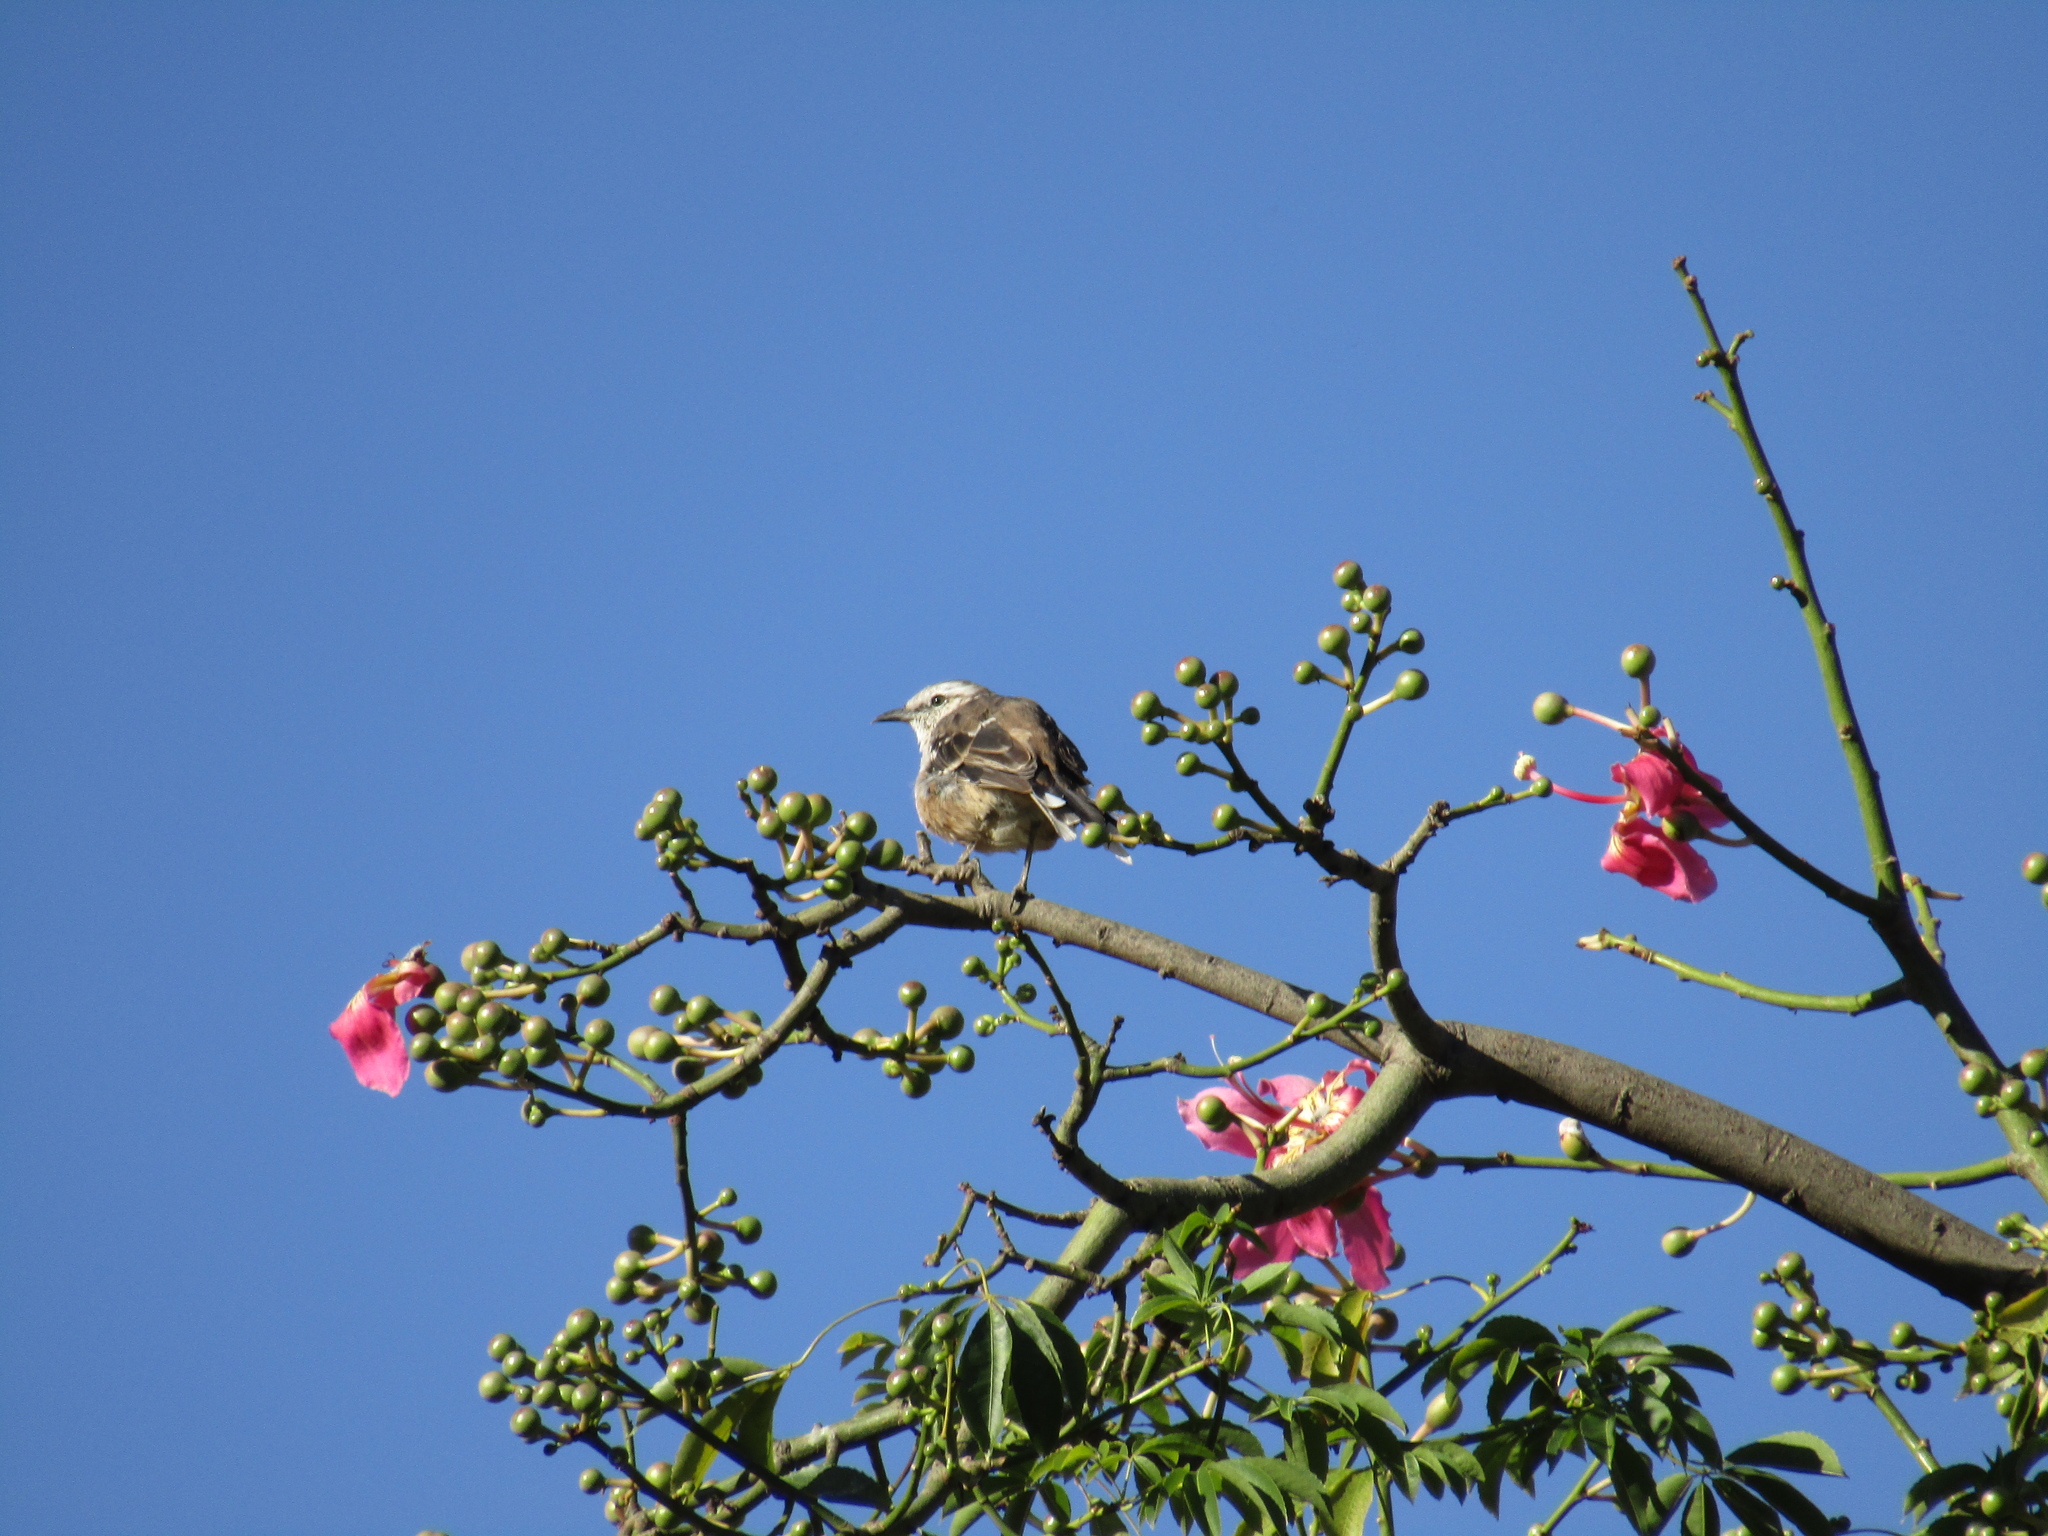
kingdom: Animalia
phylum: Chordata
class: Aves
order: Passeriformes
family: Mimidae
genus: Mimus
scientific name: Mimus saturninus
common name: Chalk-browed mockingbird
